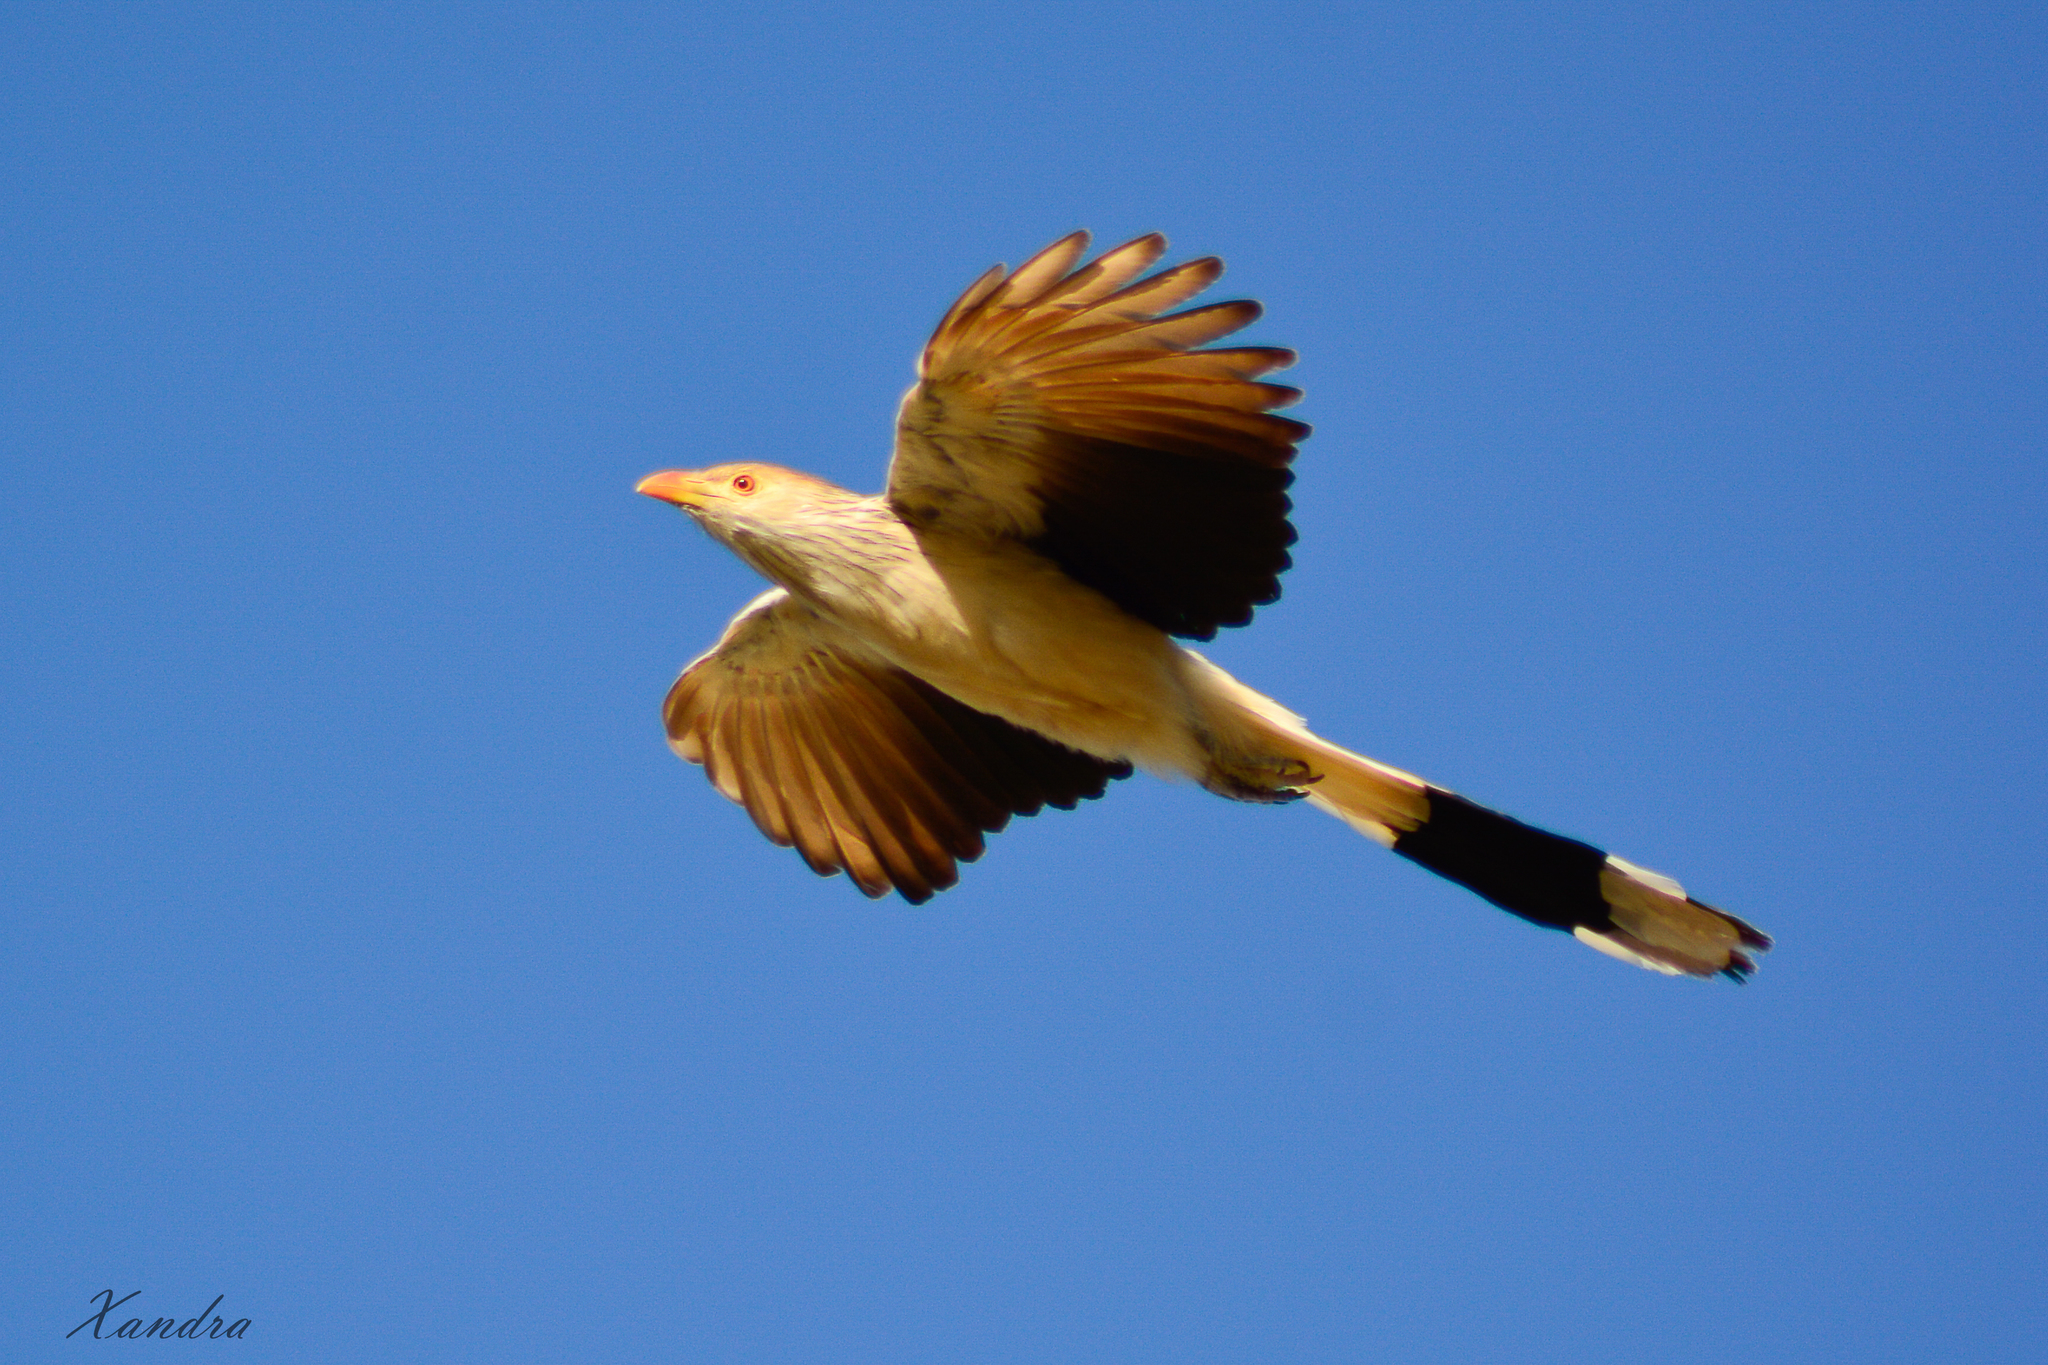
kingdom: Animalia
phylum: Chordata
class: Aves
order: Cuculiformes
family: Cuculidae
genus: Guira
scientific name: Guira guira
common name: Guira cuckoo
